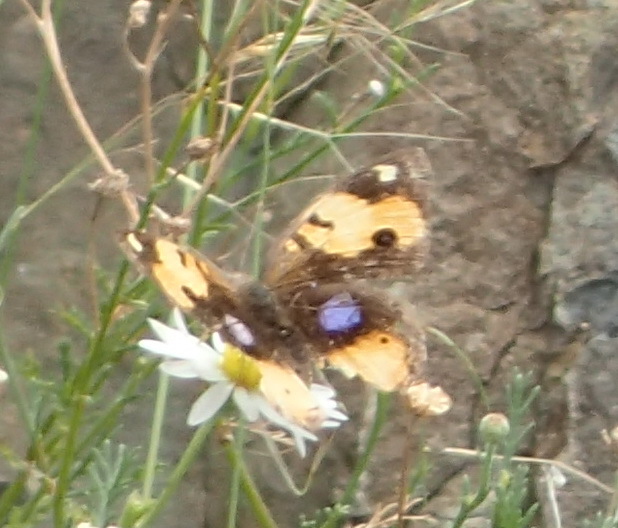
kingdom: Animalia
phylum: Arthropoda
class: Insecta
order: Lepidoptera
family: Nymphalidae
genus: Junonia
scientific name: Junonia hierta
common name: Yellow pansy
